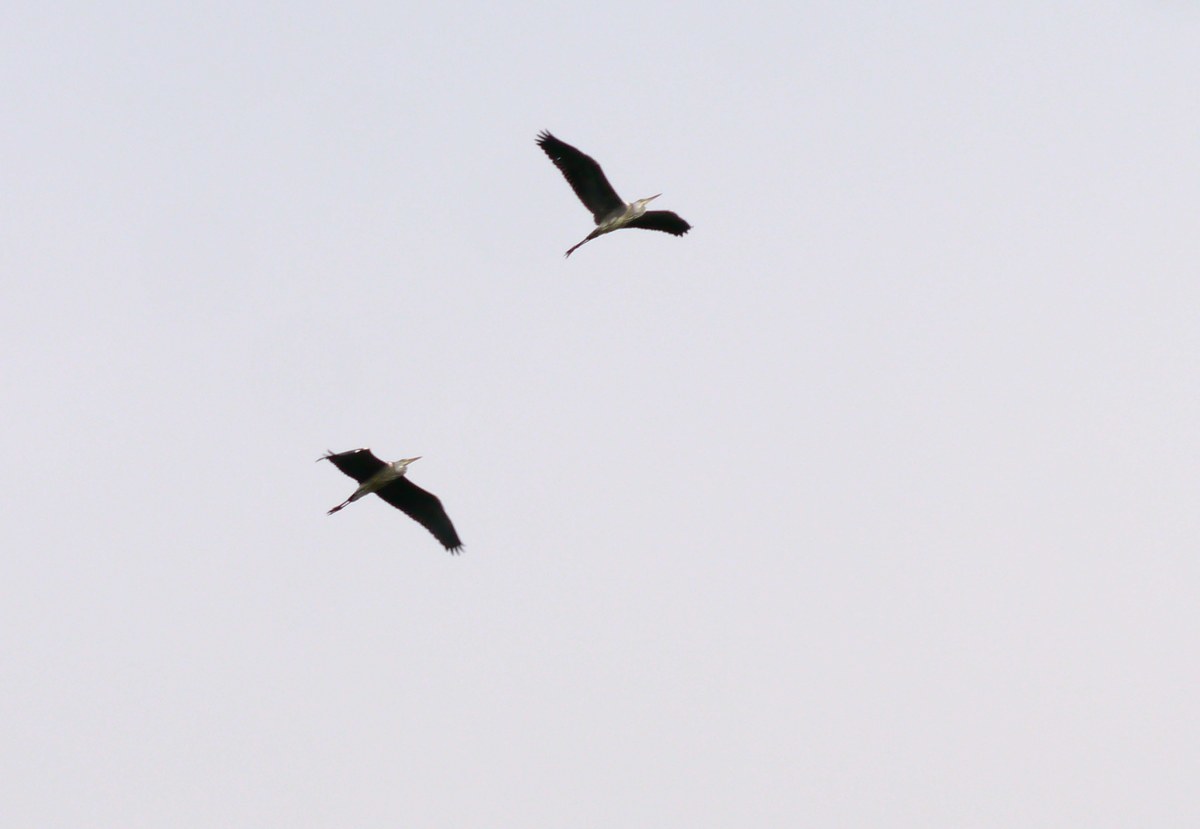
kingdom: Animalia
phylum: Chordata
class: Aves
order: Pelecaniformes
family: Ardeidae
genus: Ardea
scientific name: Ardea cinerea
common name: Grey heron
